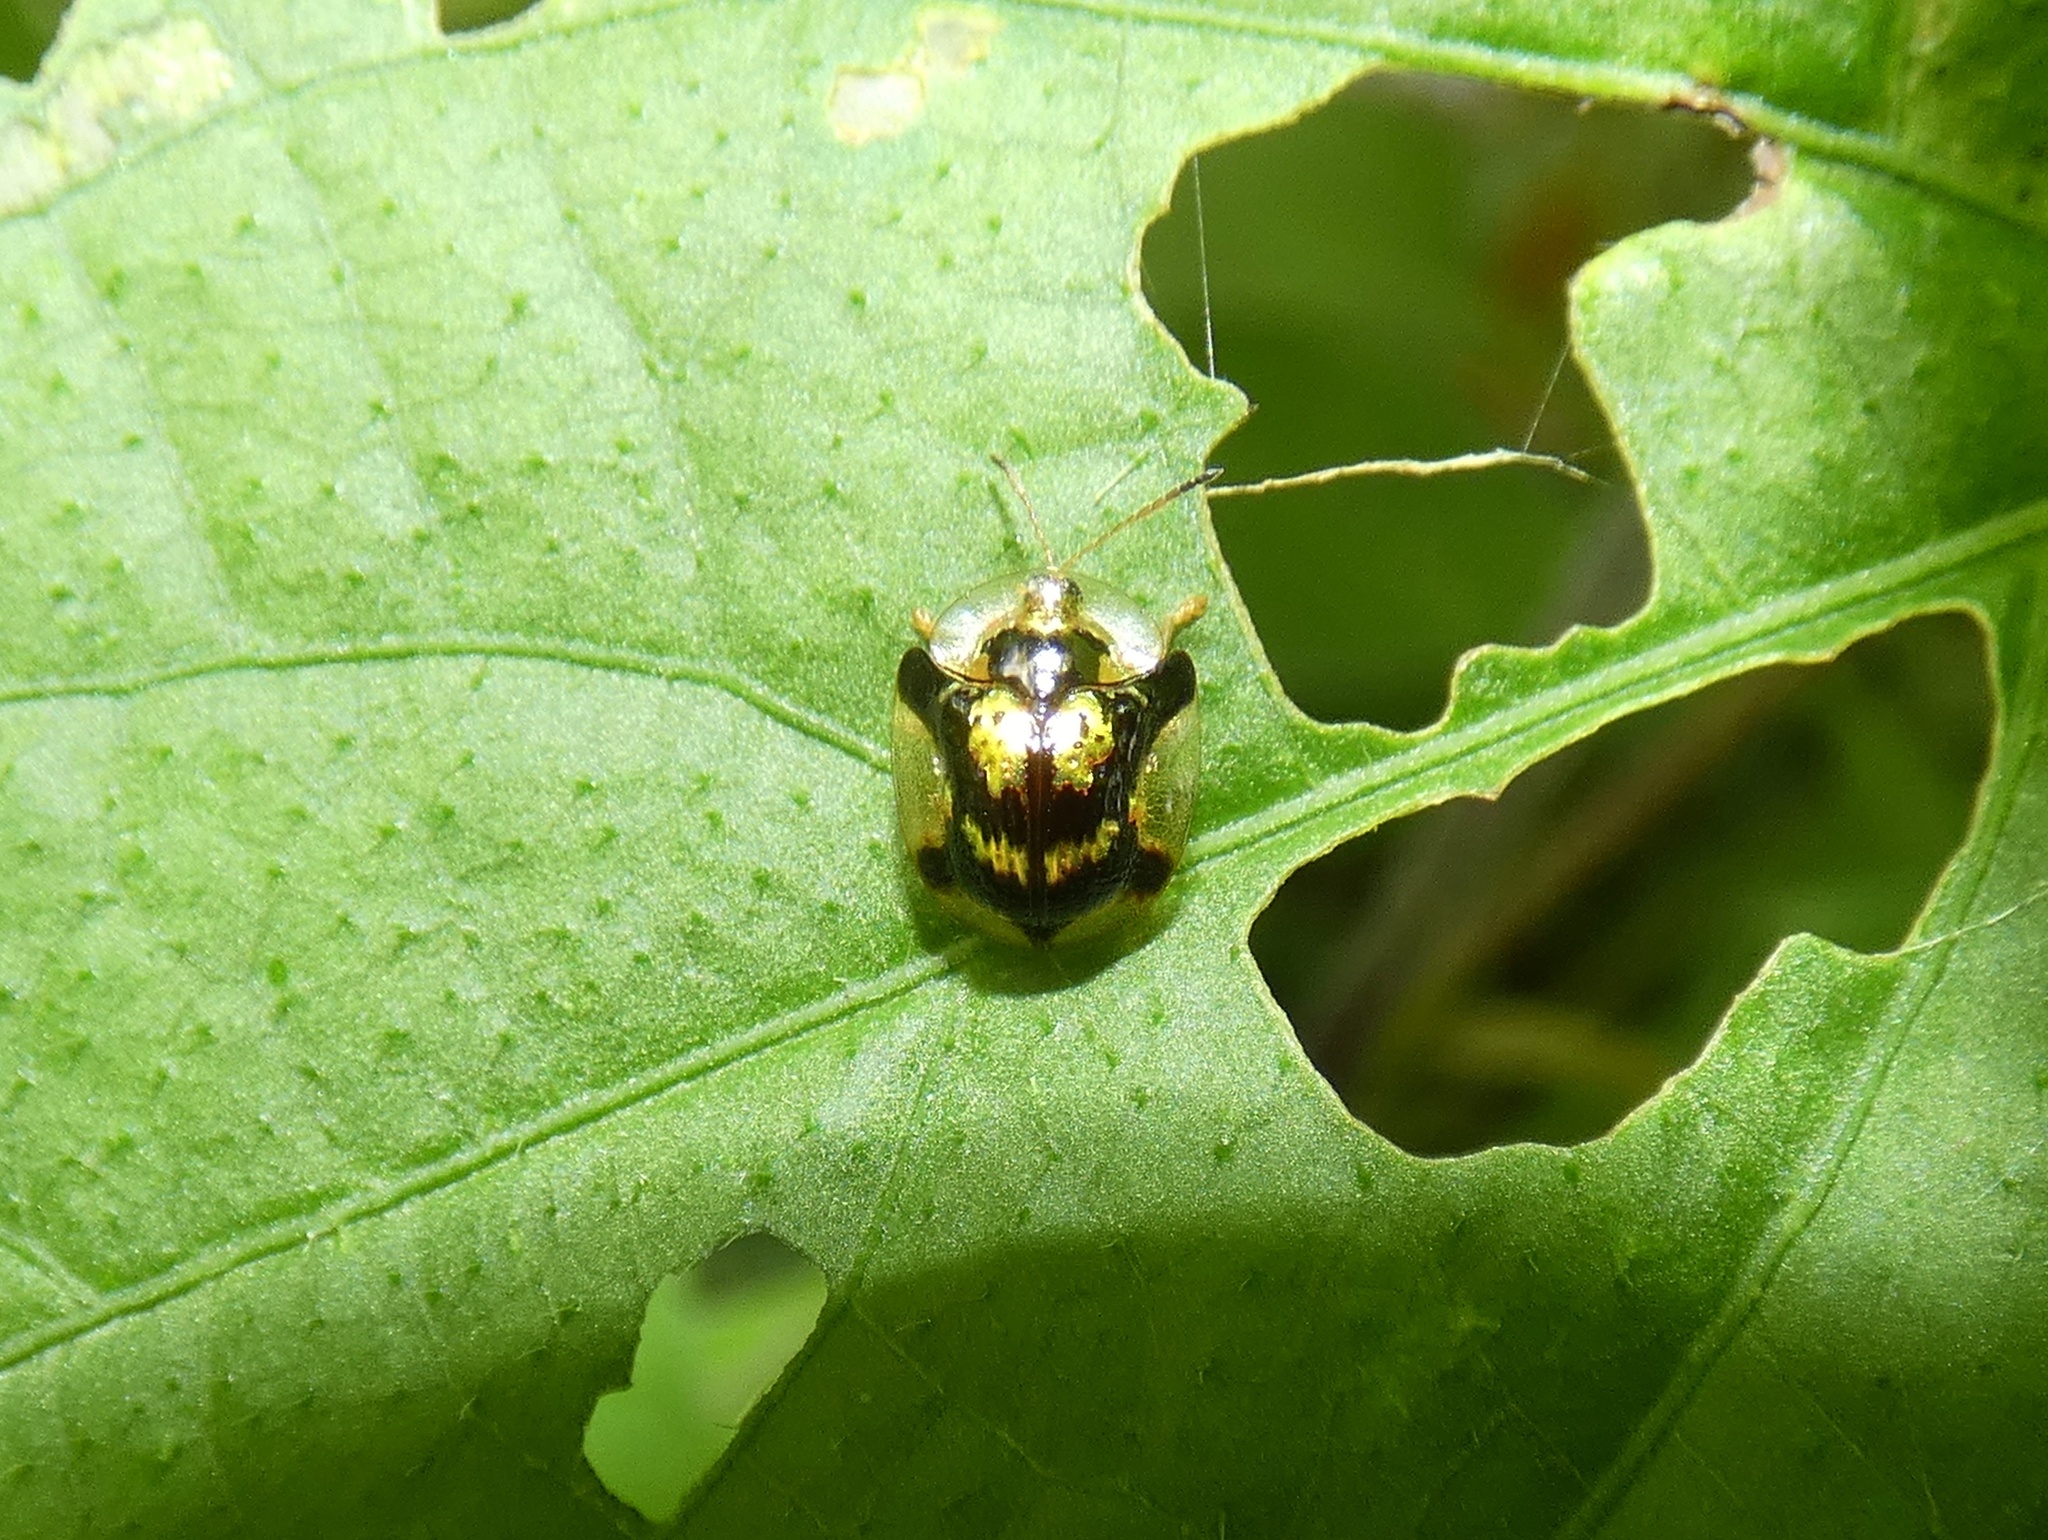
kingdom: Animalia
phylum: Arthropoda
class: Insecta
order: Coleoptera
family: Chrysomelidae
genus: Deloyala
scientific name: Deloyala insubida
